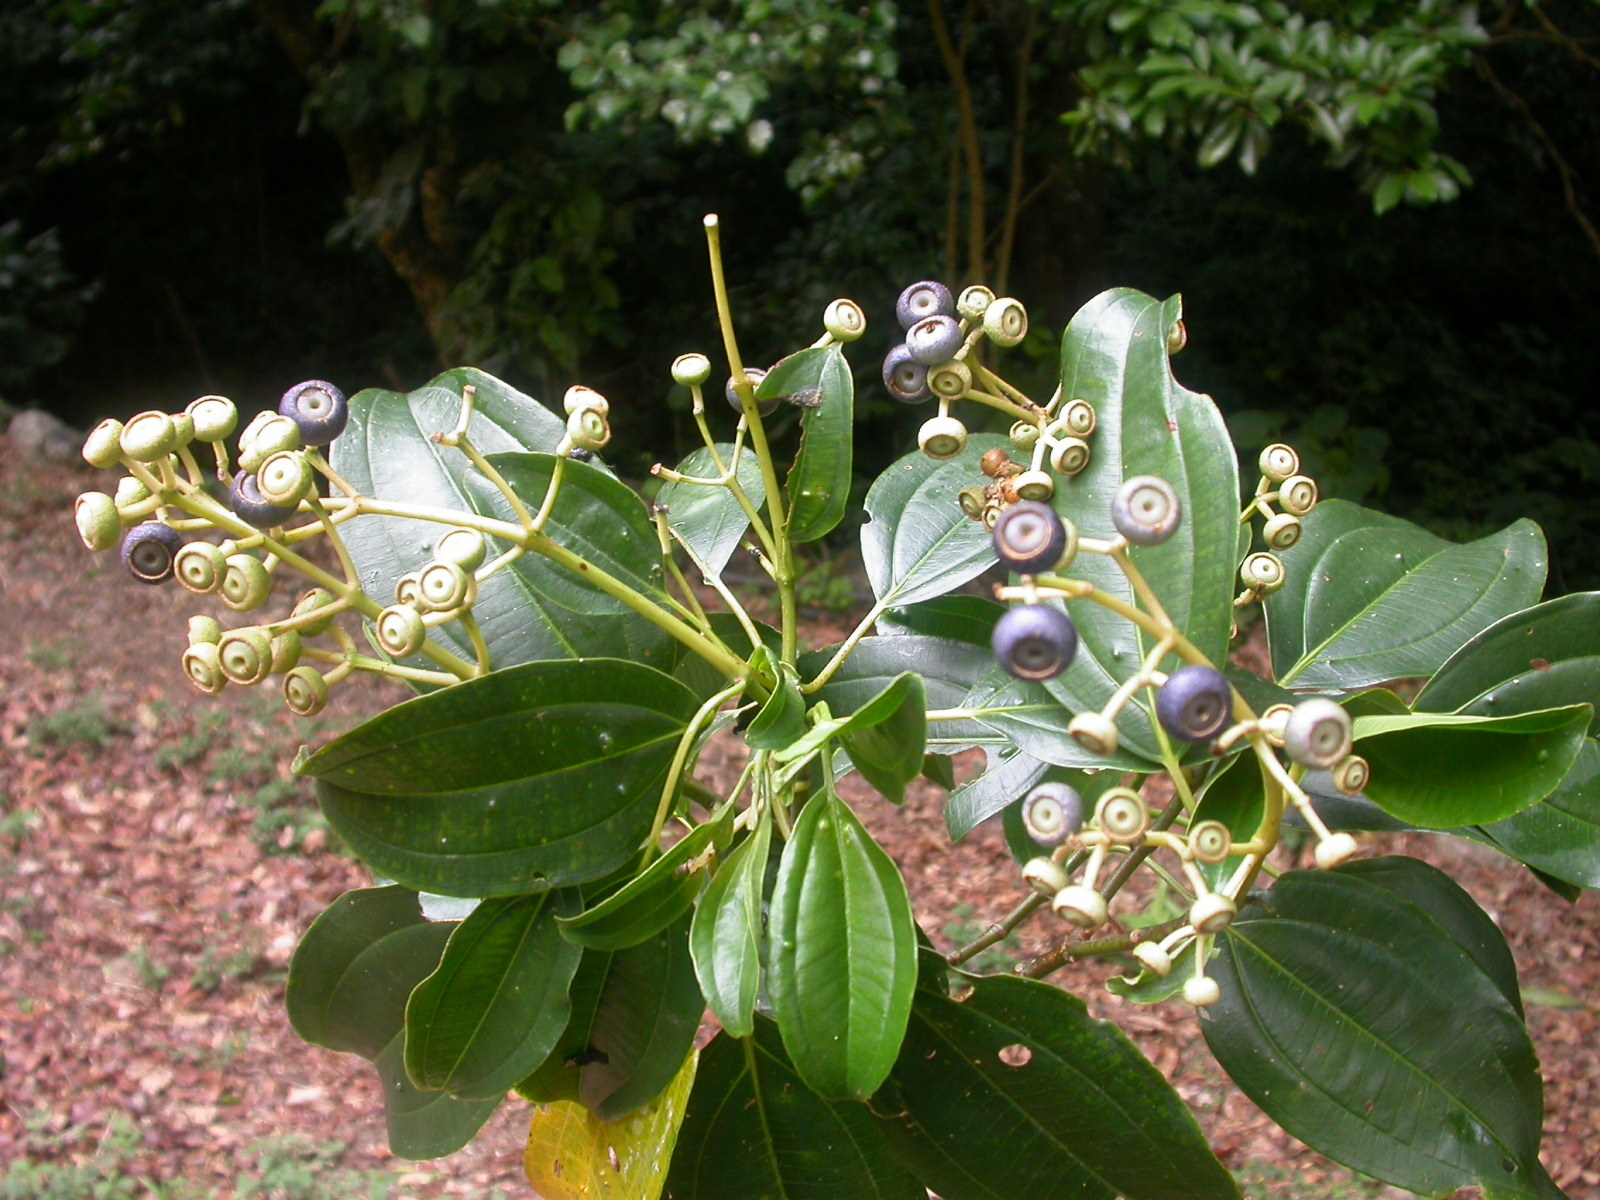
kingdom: Plantae
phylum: Tracheophyta
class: Magnoliopsida
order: Myrtales
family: Melastomataceae
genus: Miconia
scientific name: Miconia oerstediana
